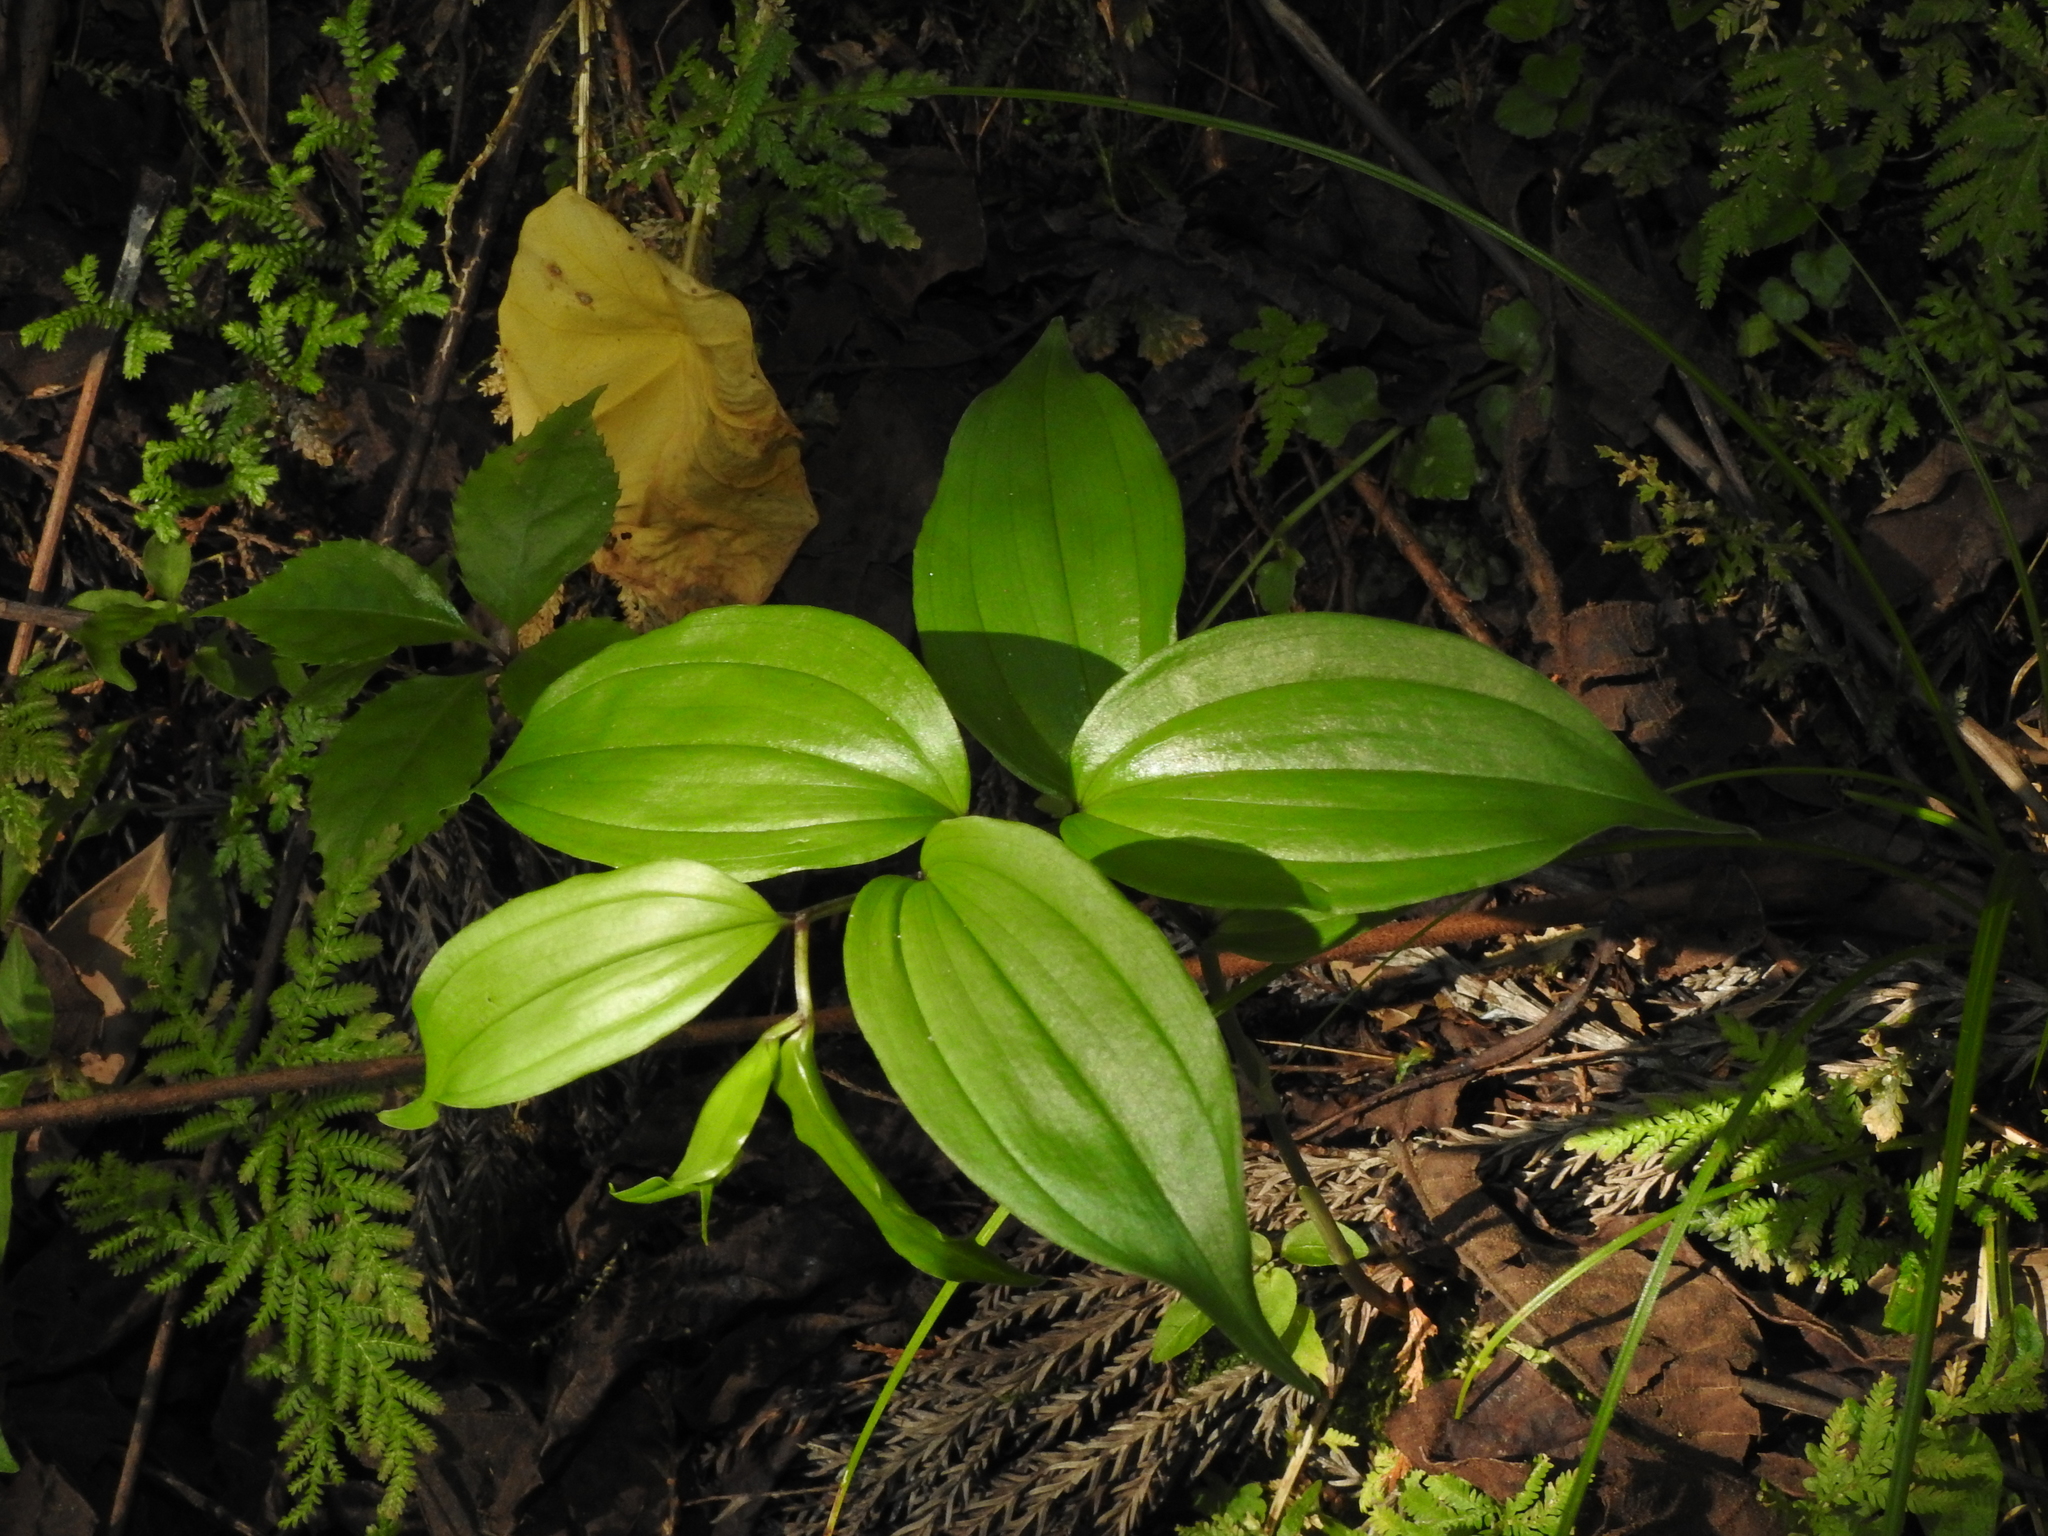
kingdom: Plantae
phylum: Tracheophyta
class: Liliopsida
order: Liliales
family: Colchicaceae
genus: Disporum
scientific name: Disporum kawakamii
